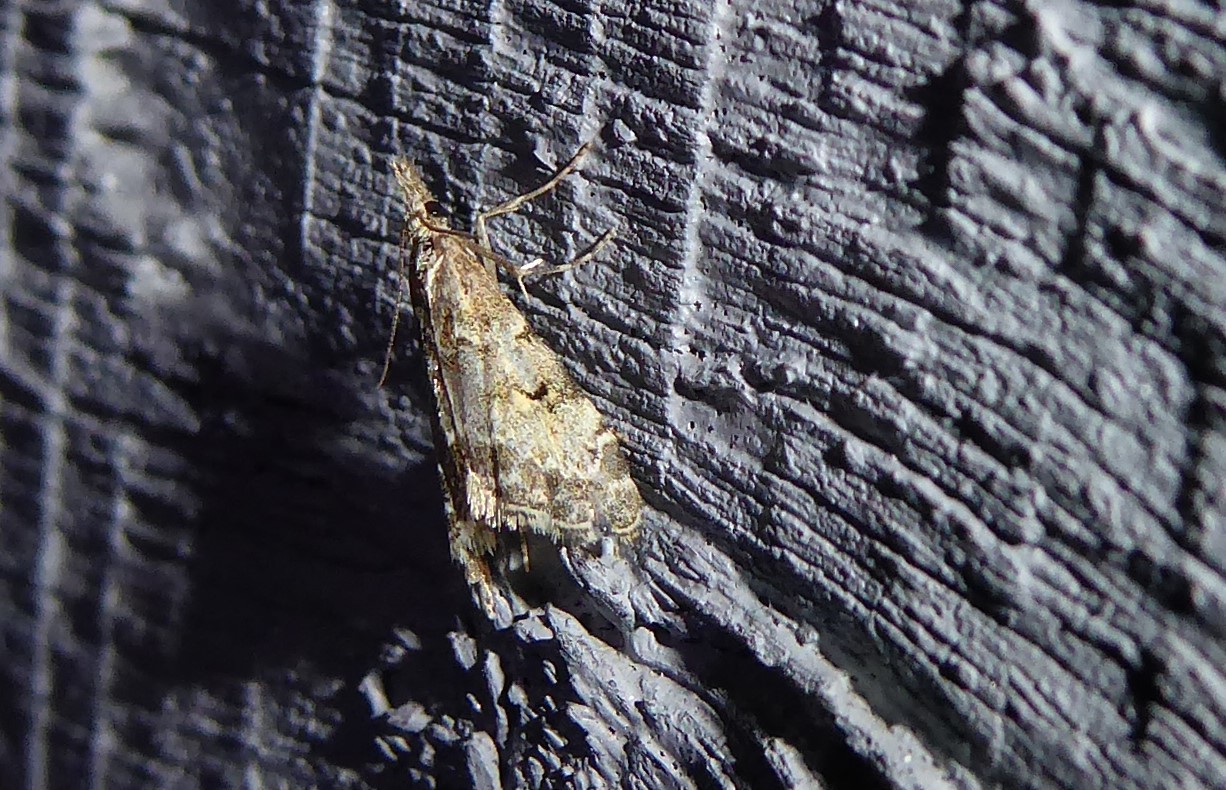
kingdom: Animalia
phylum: Arthropoda
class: Insecta
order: Lepidoptera
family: Crambidae
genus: Glaucocharis
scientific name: Glaucocharis elaina
